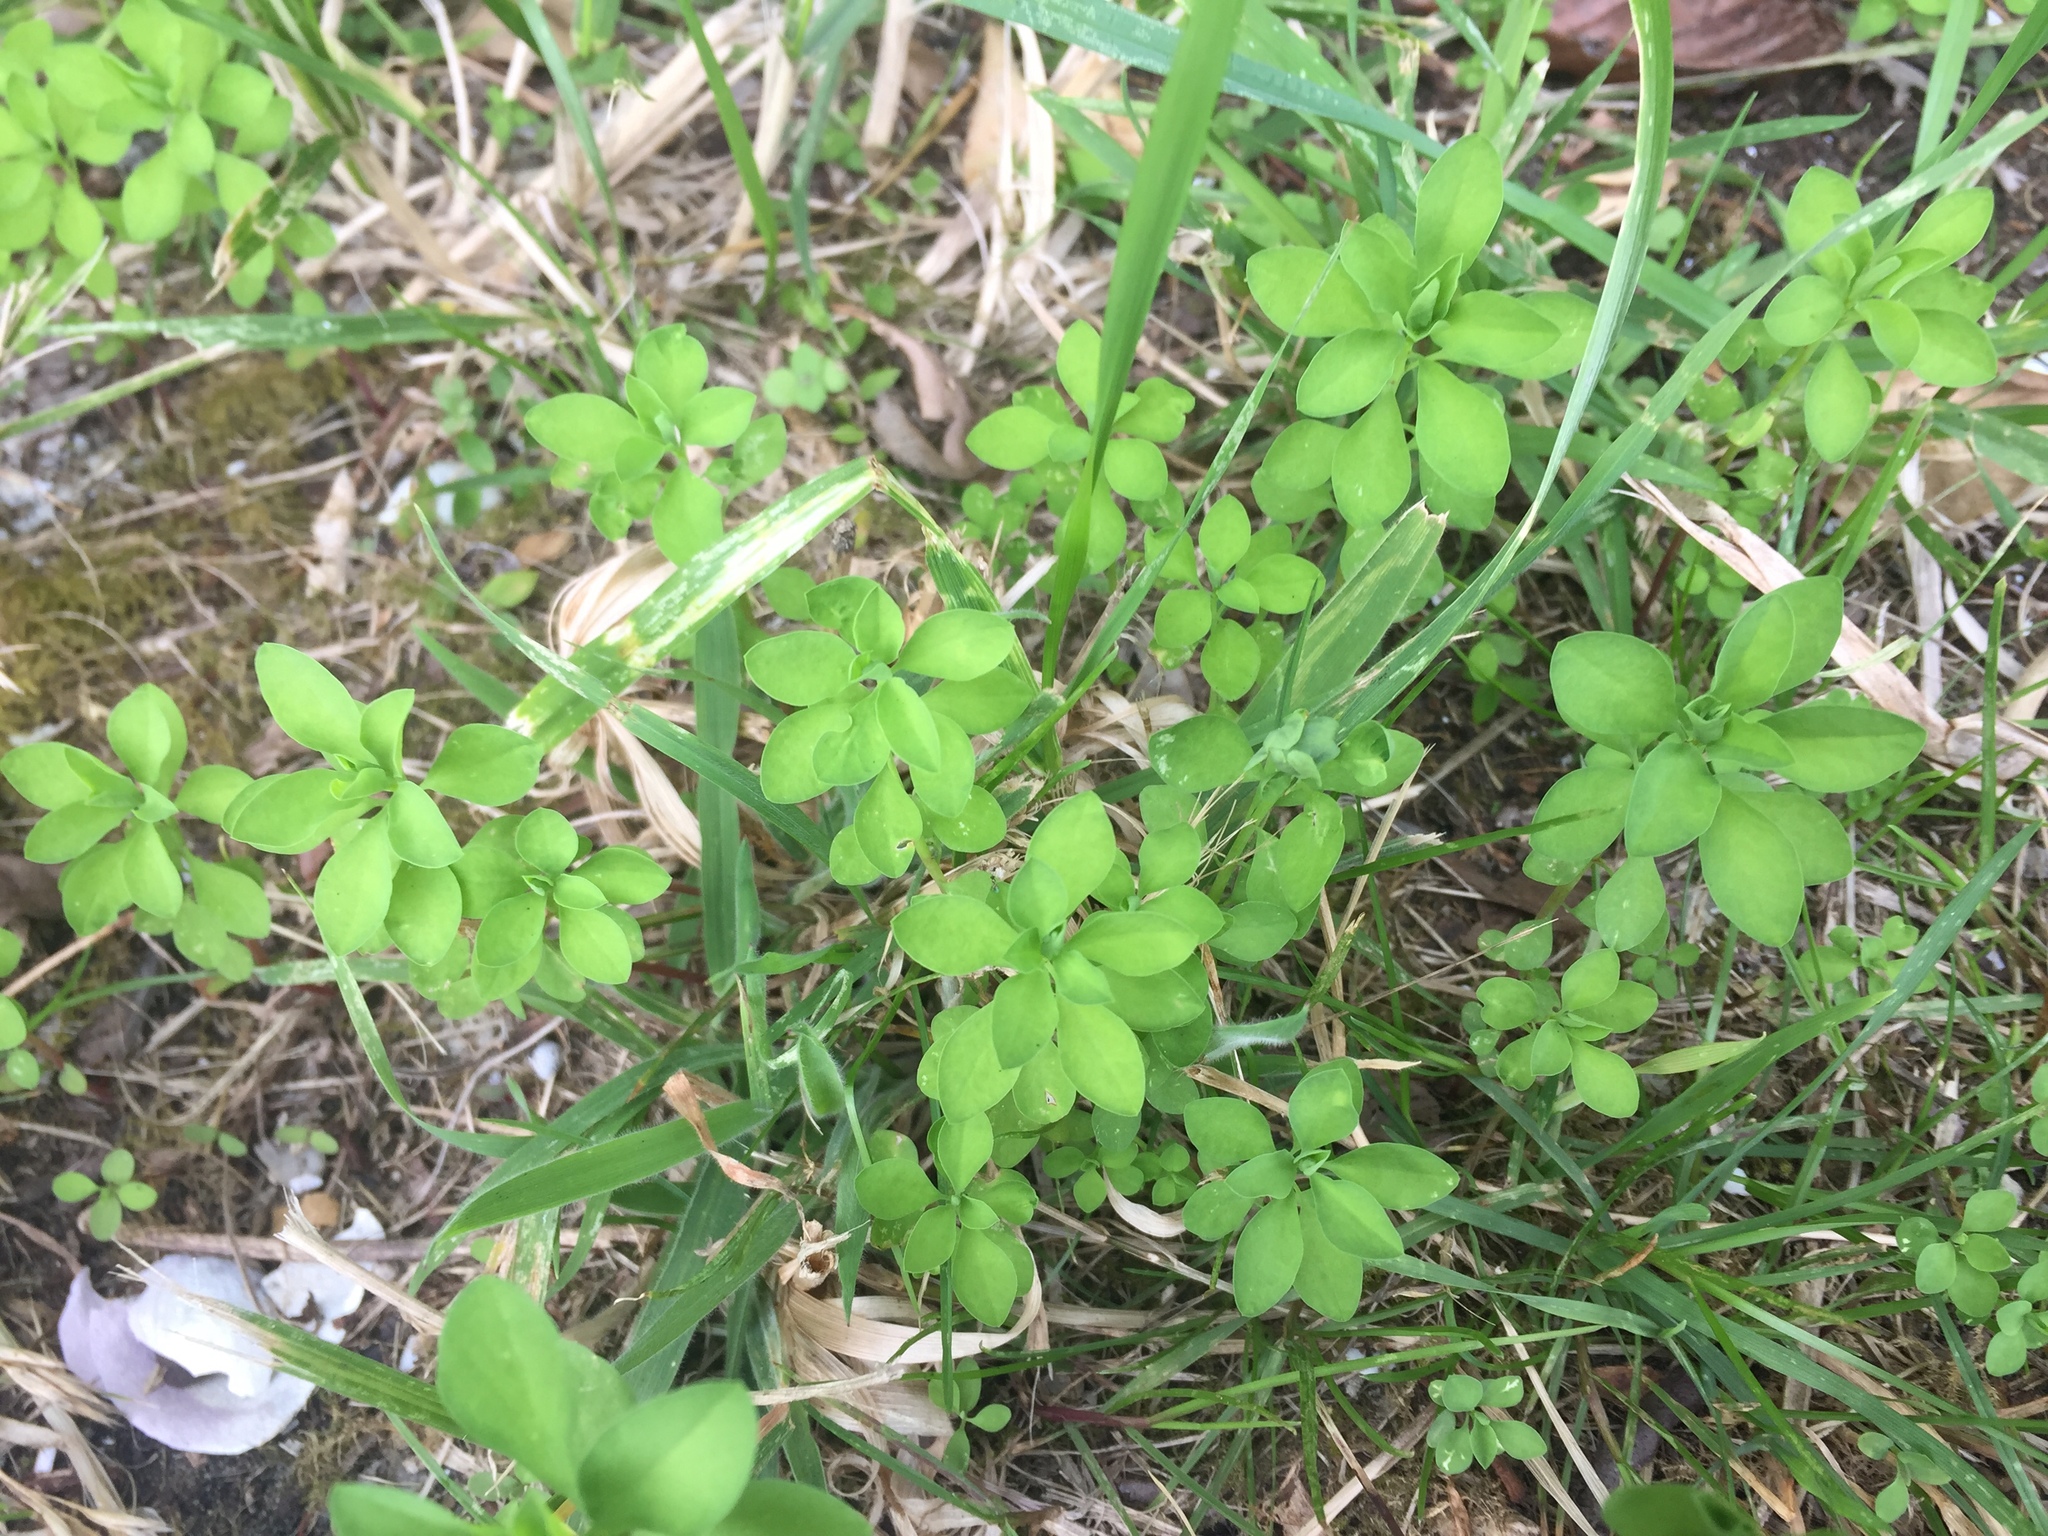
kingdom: Plantae
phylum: Tracheophyta
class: Magnoliopsida
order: Malpighiales
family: Euphorbiaceae
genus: Euphorbia
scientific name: Euphorbia peplus
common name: Petty spurge
